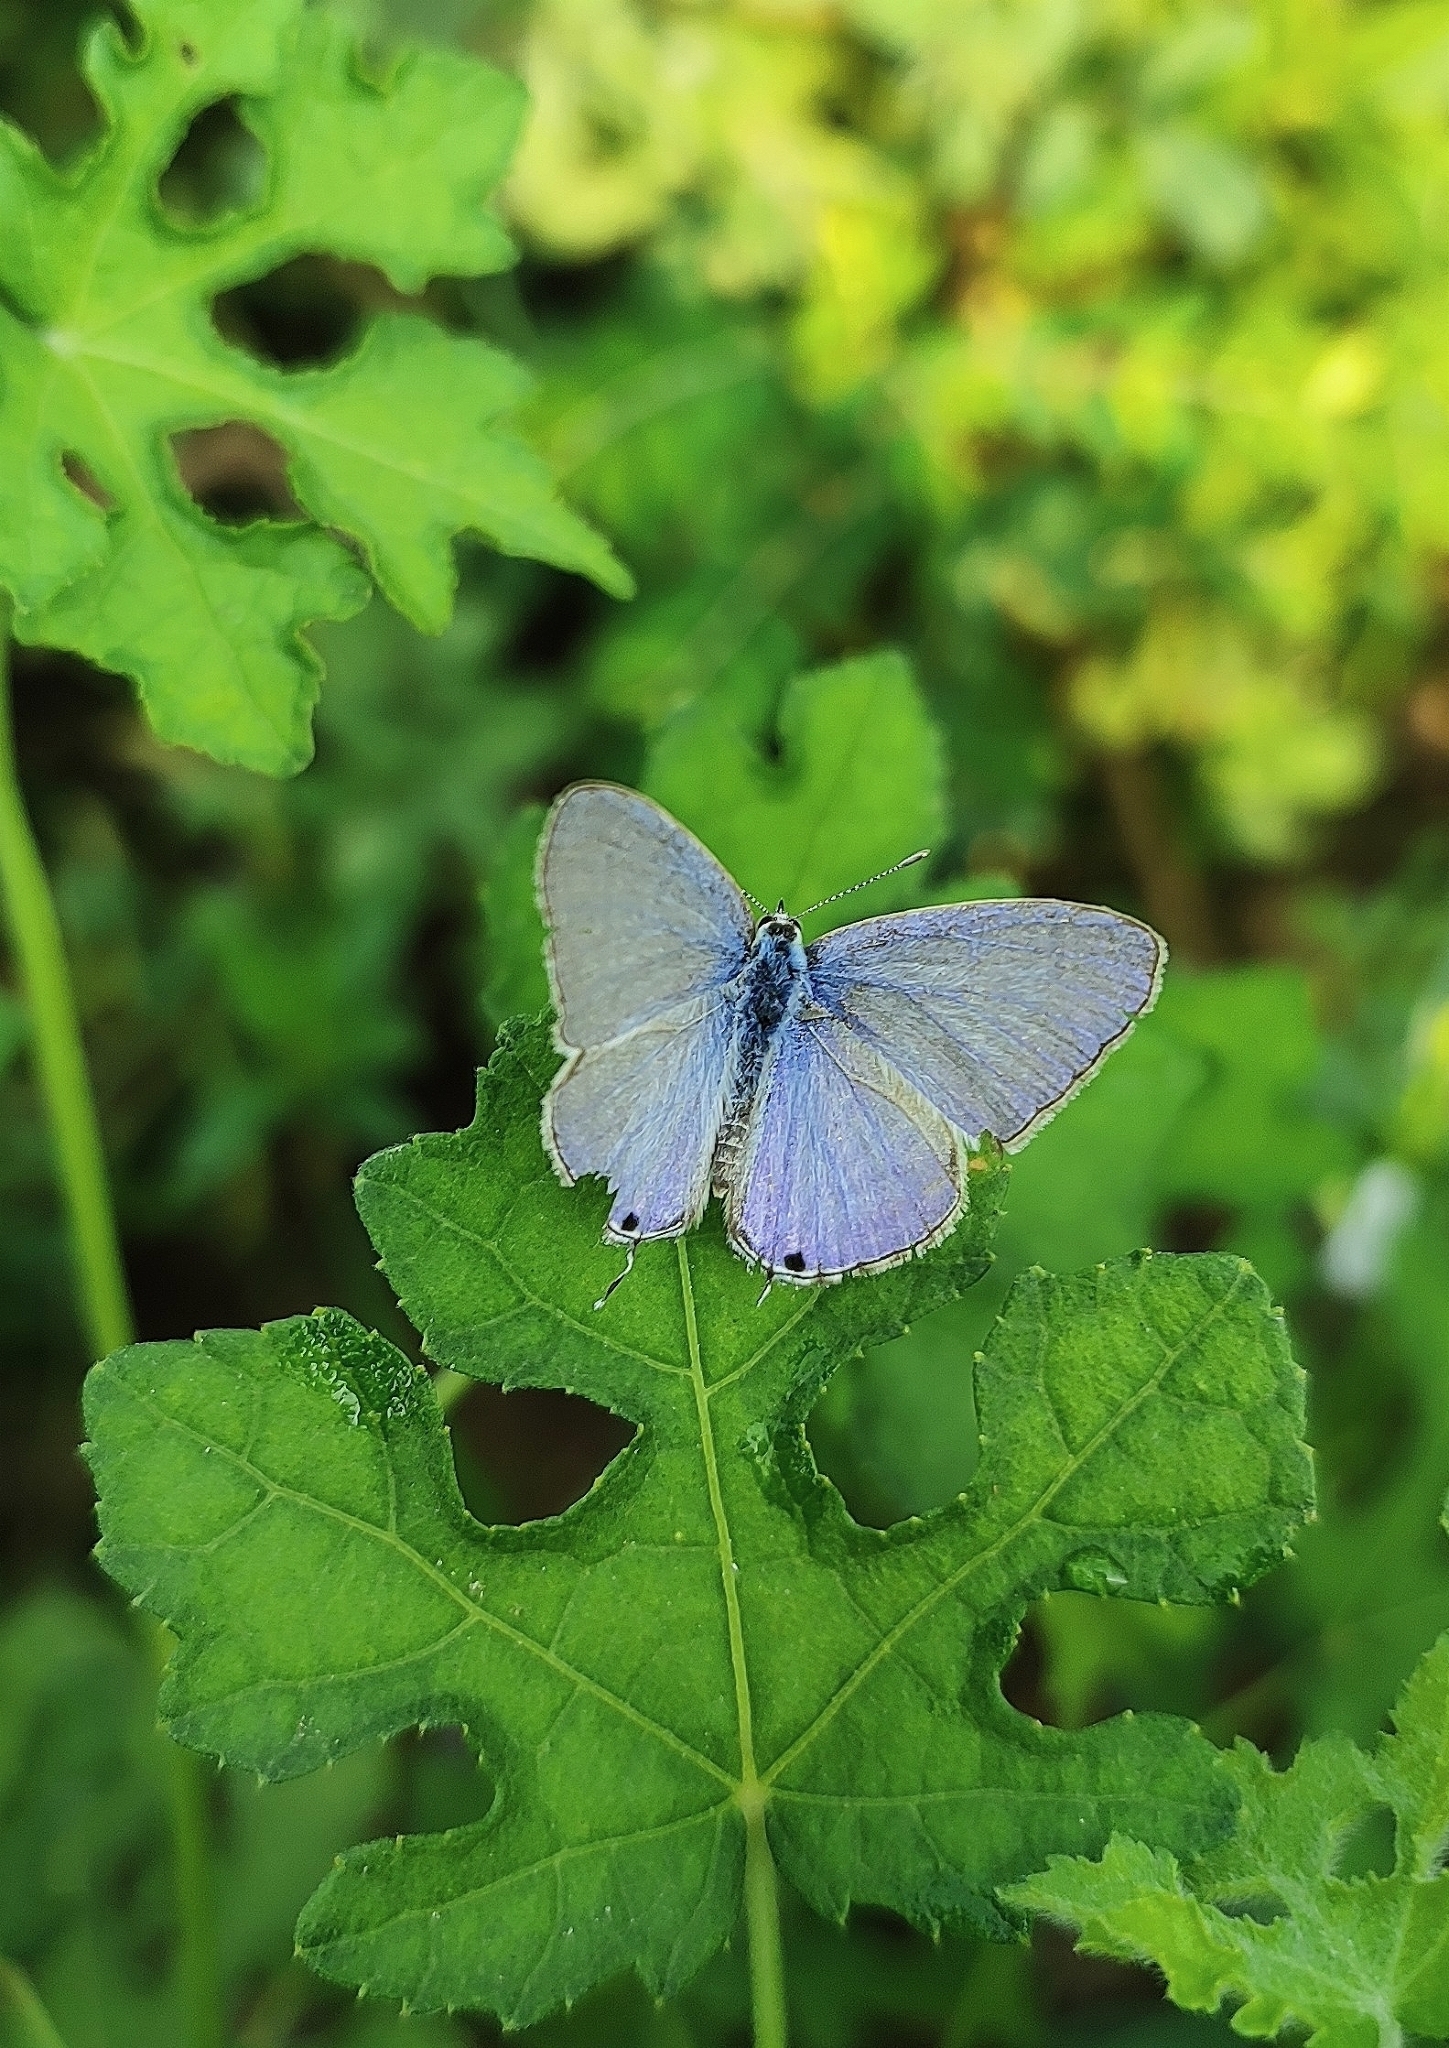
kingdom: Animalia
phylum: Arthropoda
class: Insecta
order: Lepidoptera
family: Lycaenidae
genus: Catochrysops
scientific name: Catochrysops strabo
